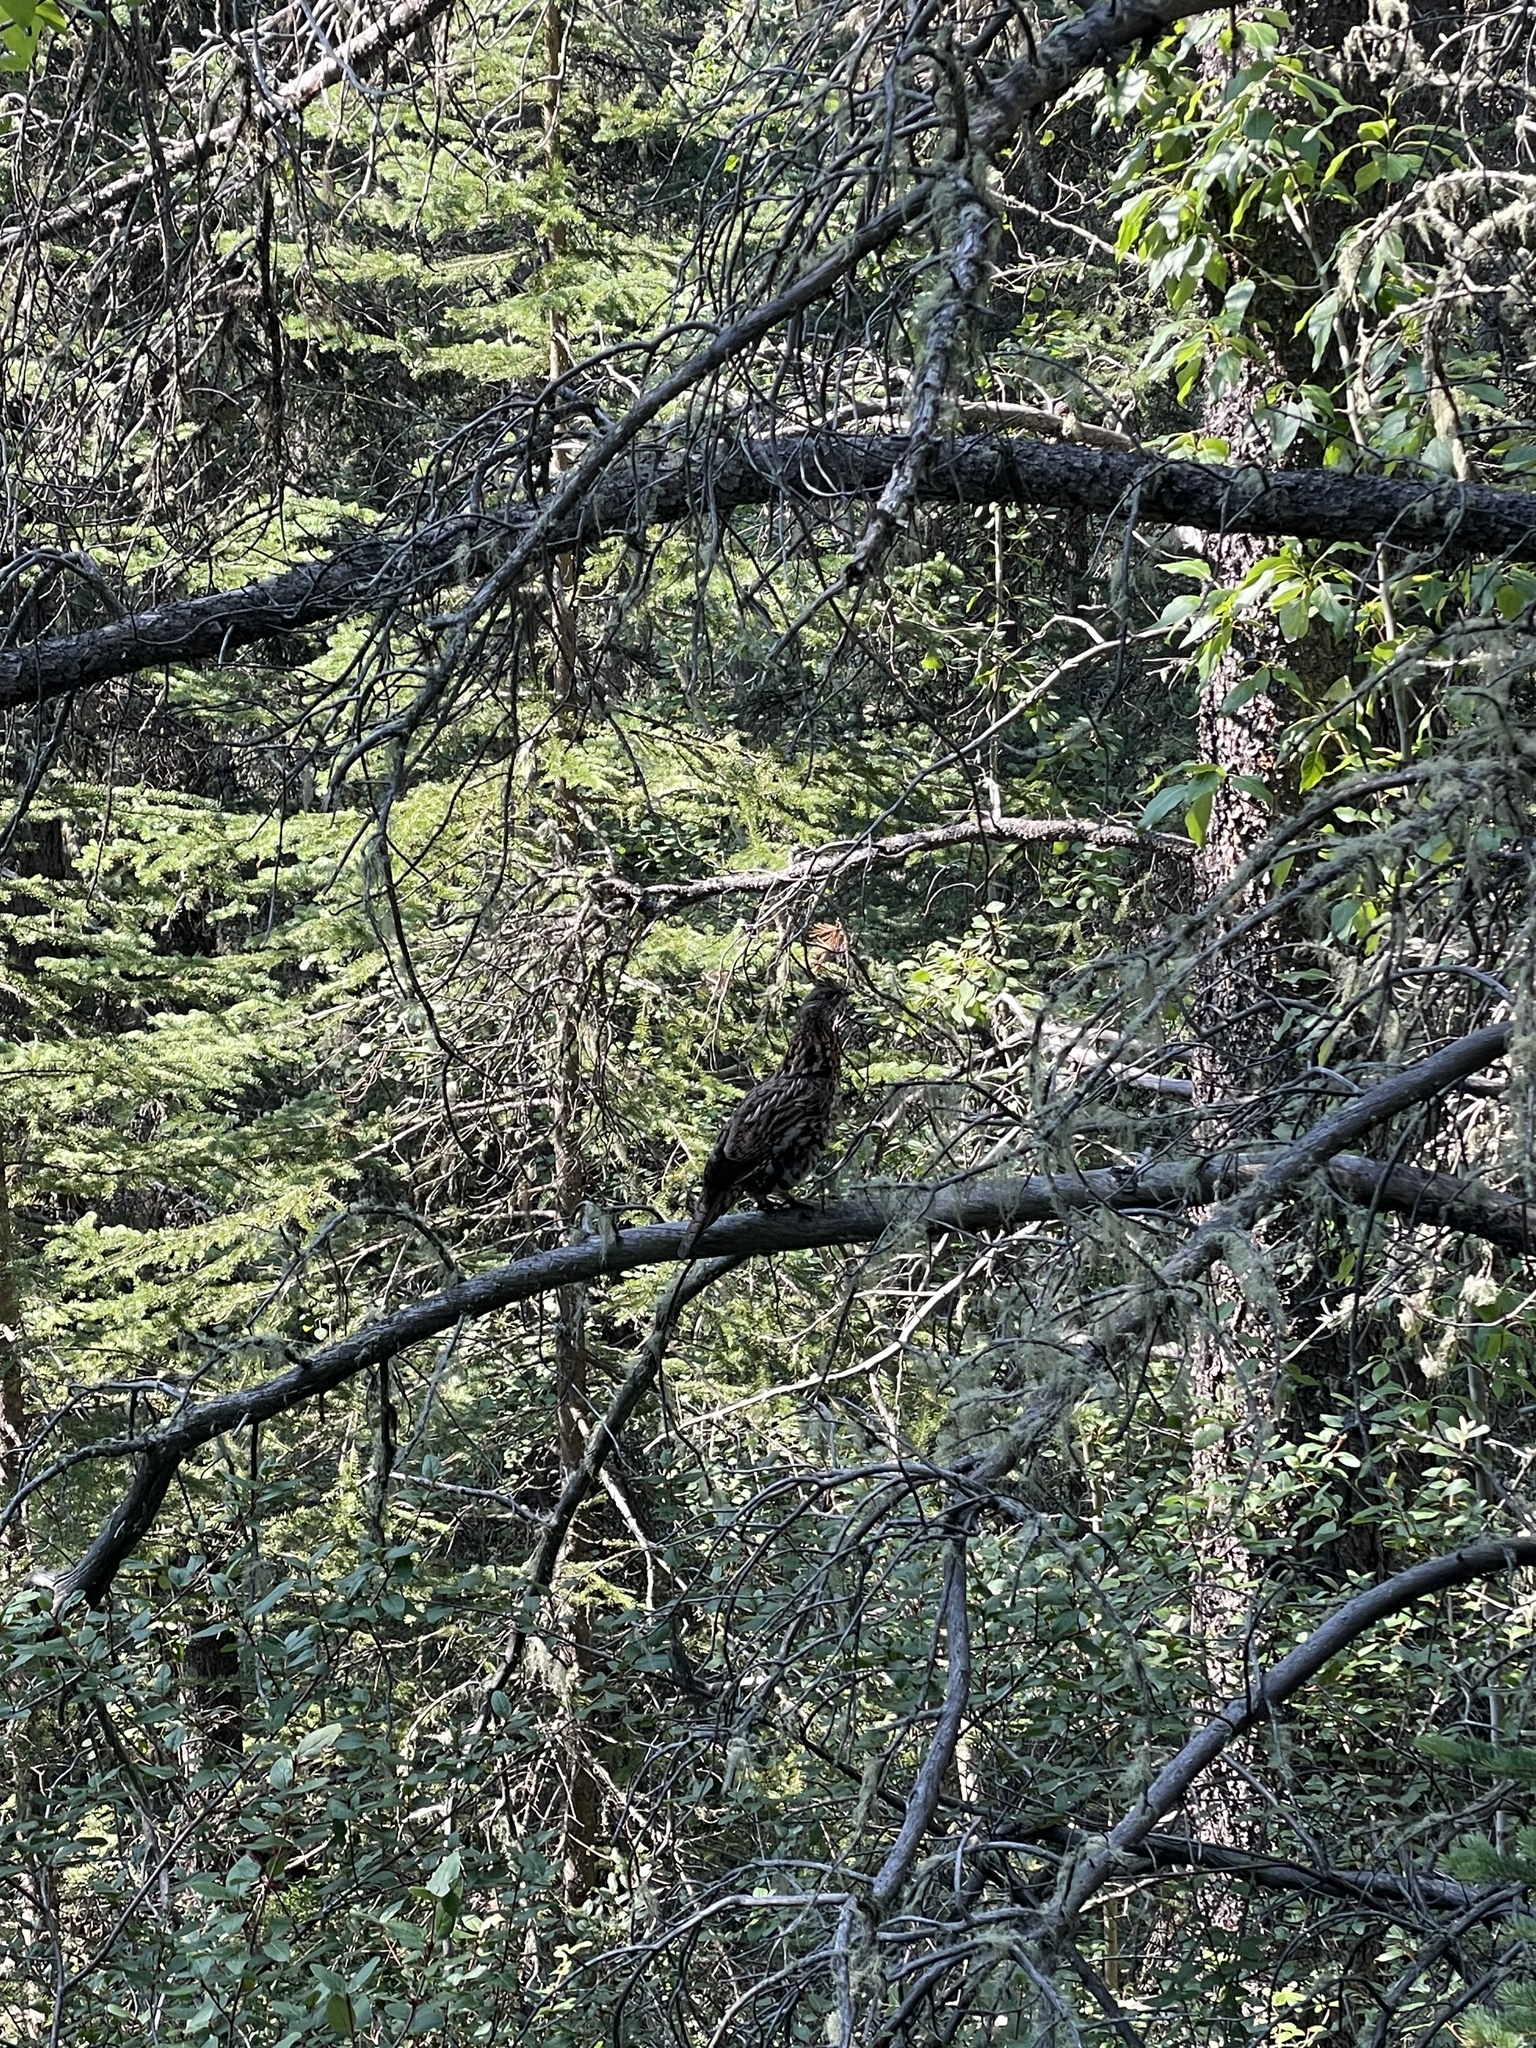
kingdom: Animalia
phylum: Chordata
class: Aves
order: Galliformes
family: Phasianidae
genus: Bonasa
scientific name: Bonasa umbellus
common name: Ruffed grouse
